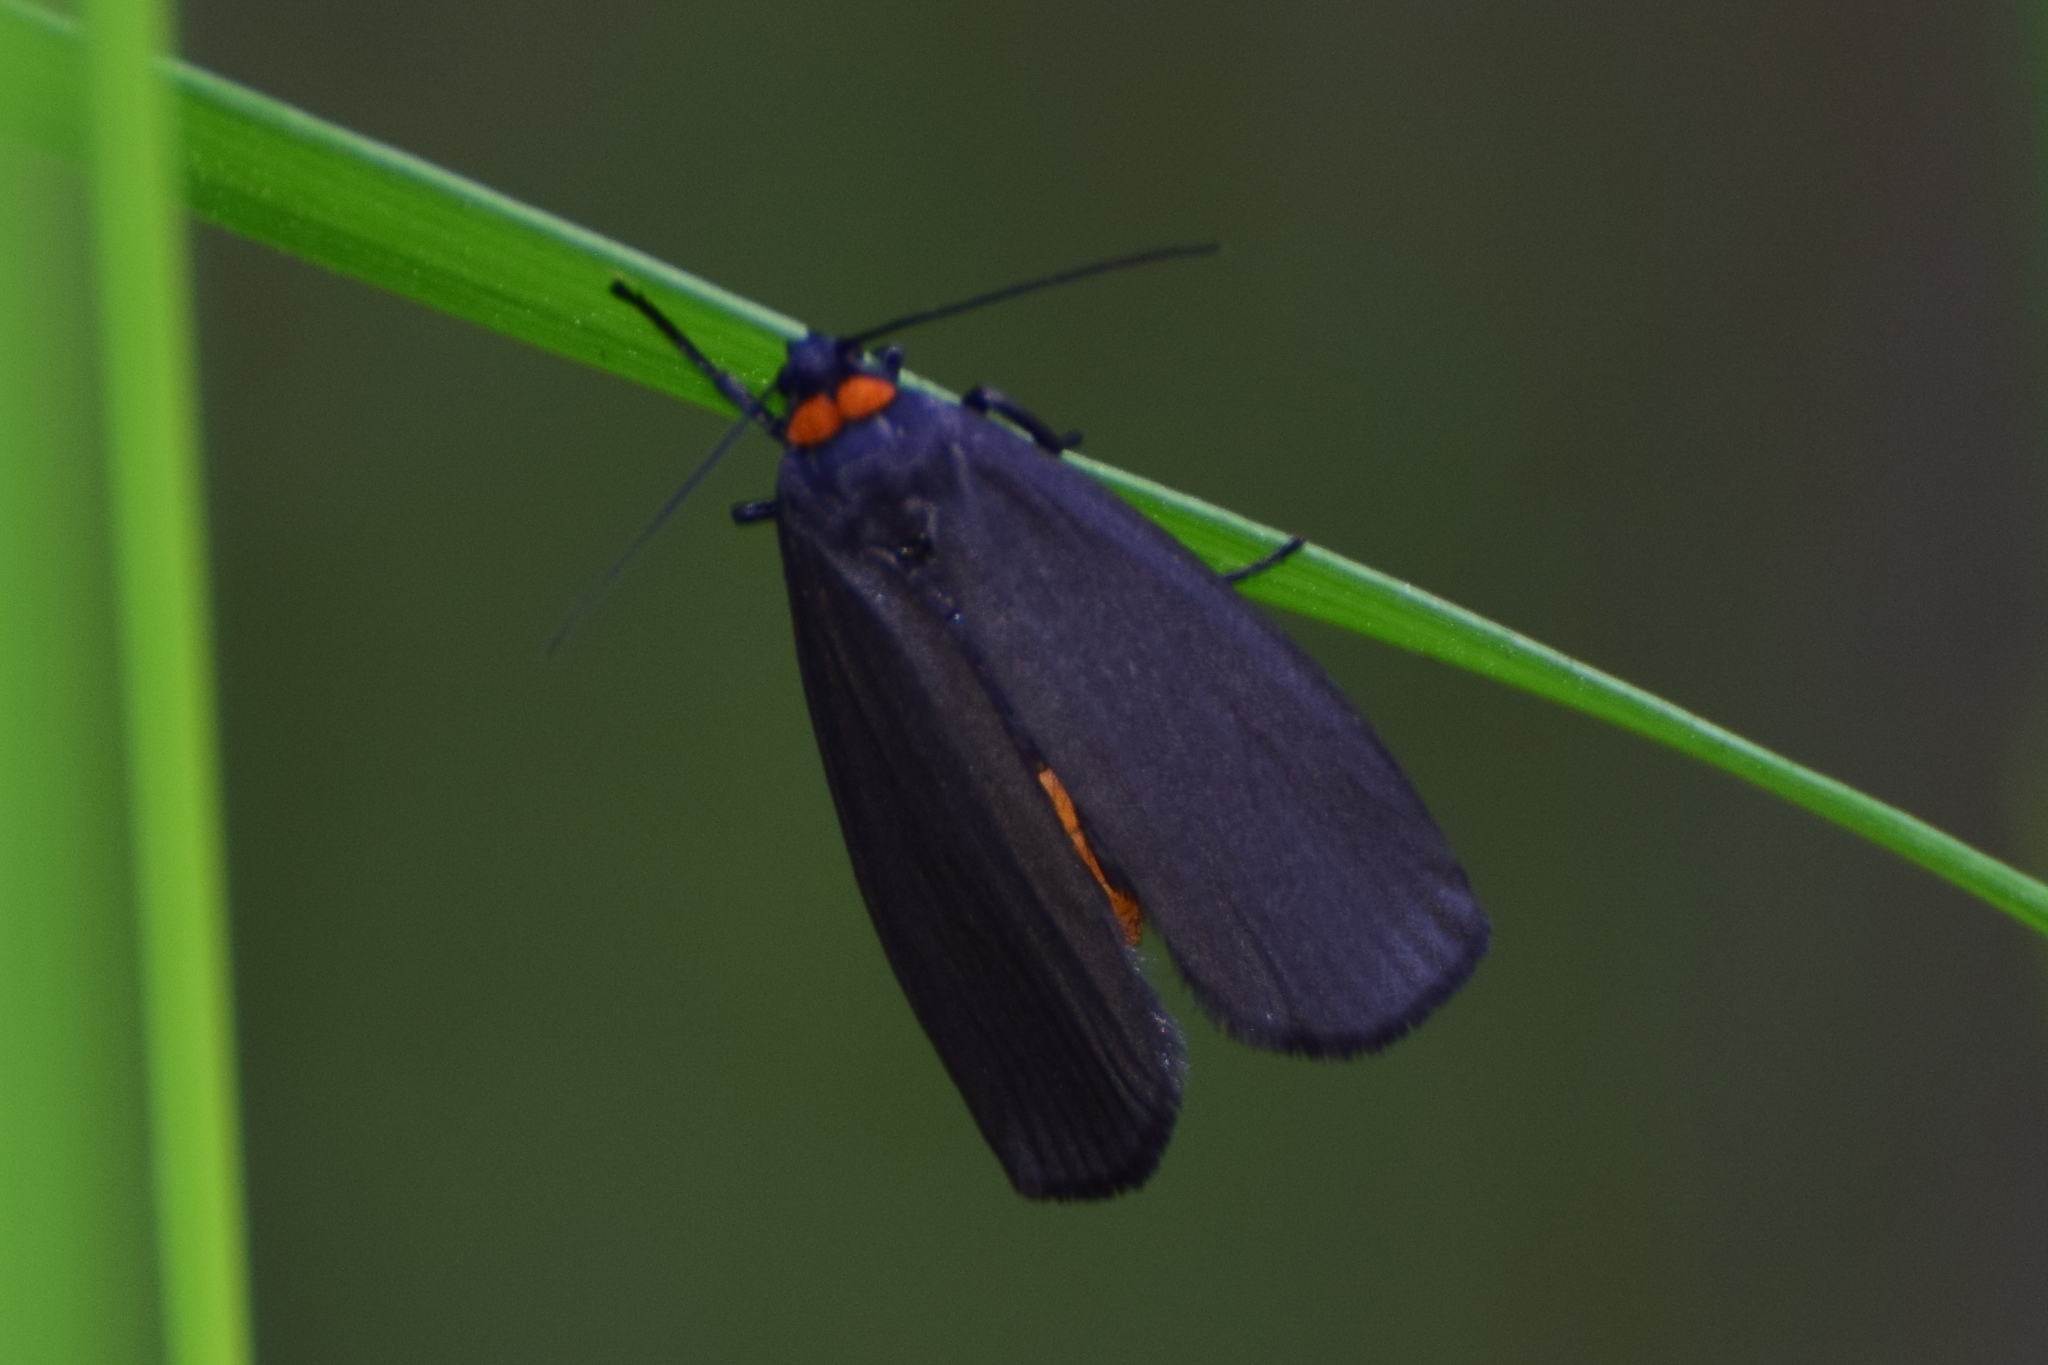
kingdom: Animalia
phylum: Arthropoda
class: Insecta
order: Lepidoptera
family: Erebidae
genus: Atolmis
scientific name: Atolmis rubricollis
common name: Red-necked footman
